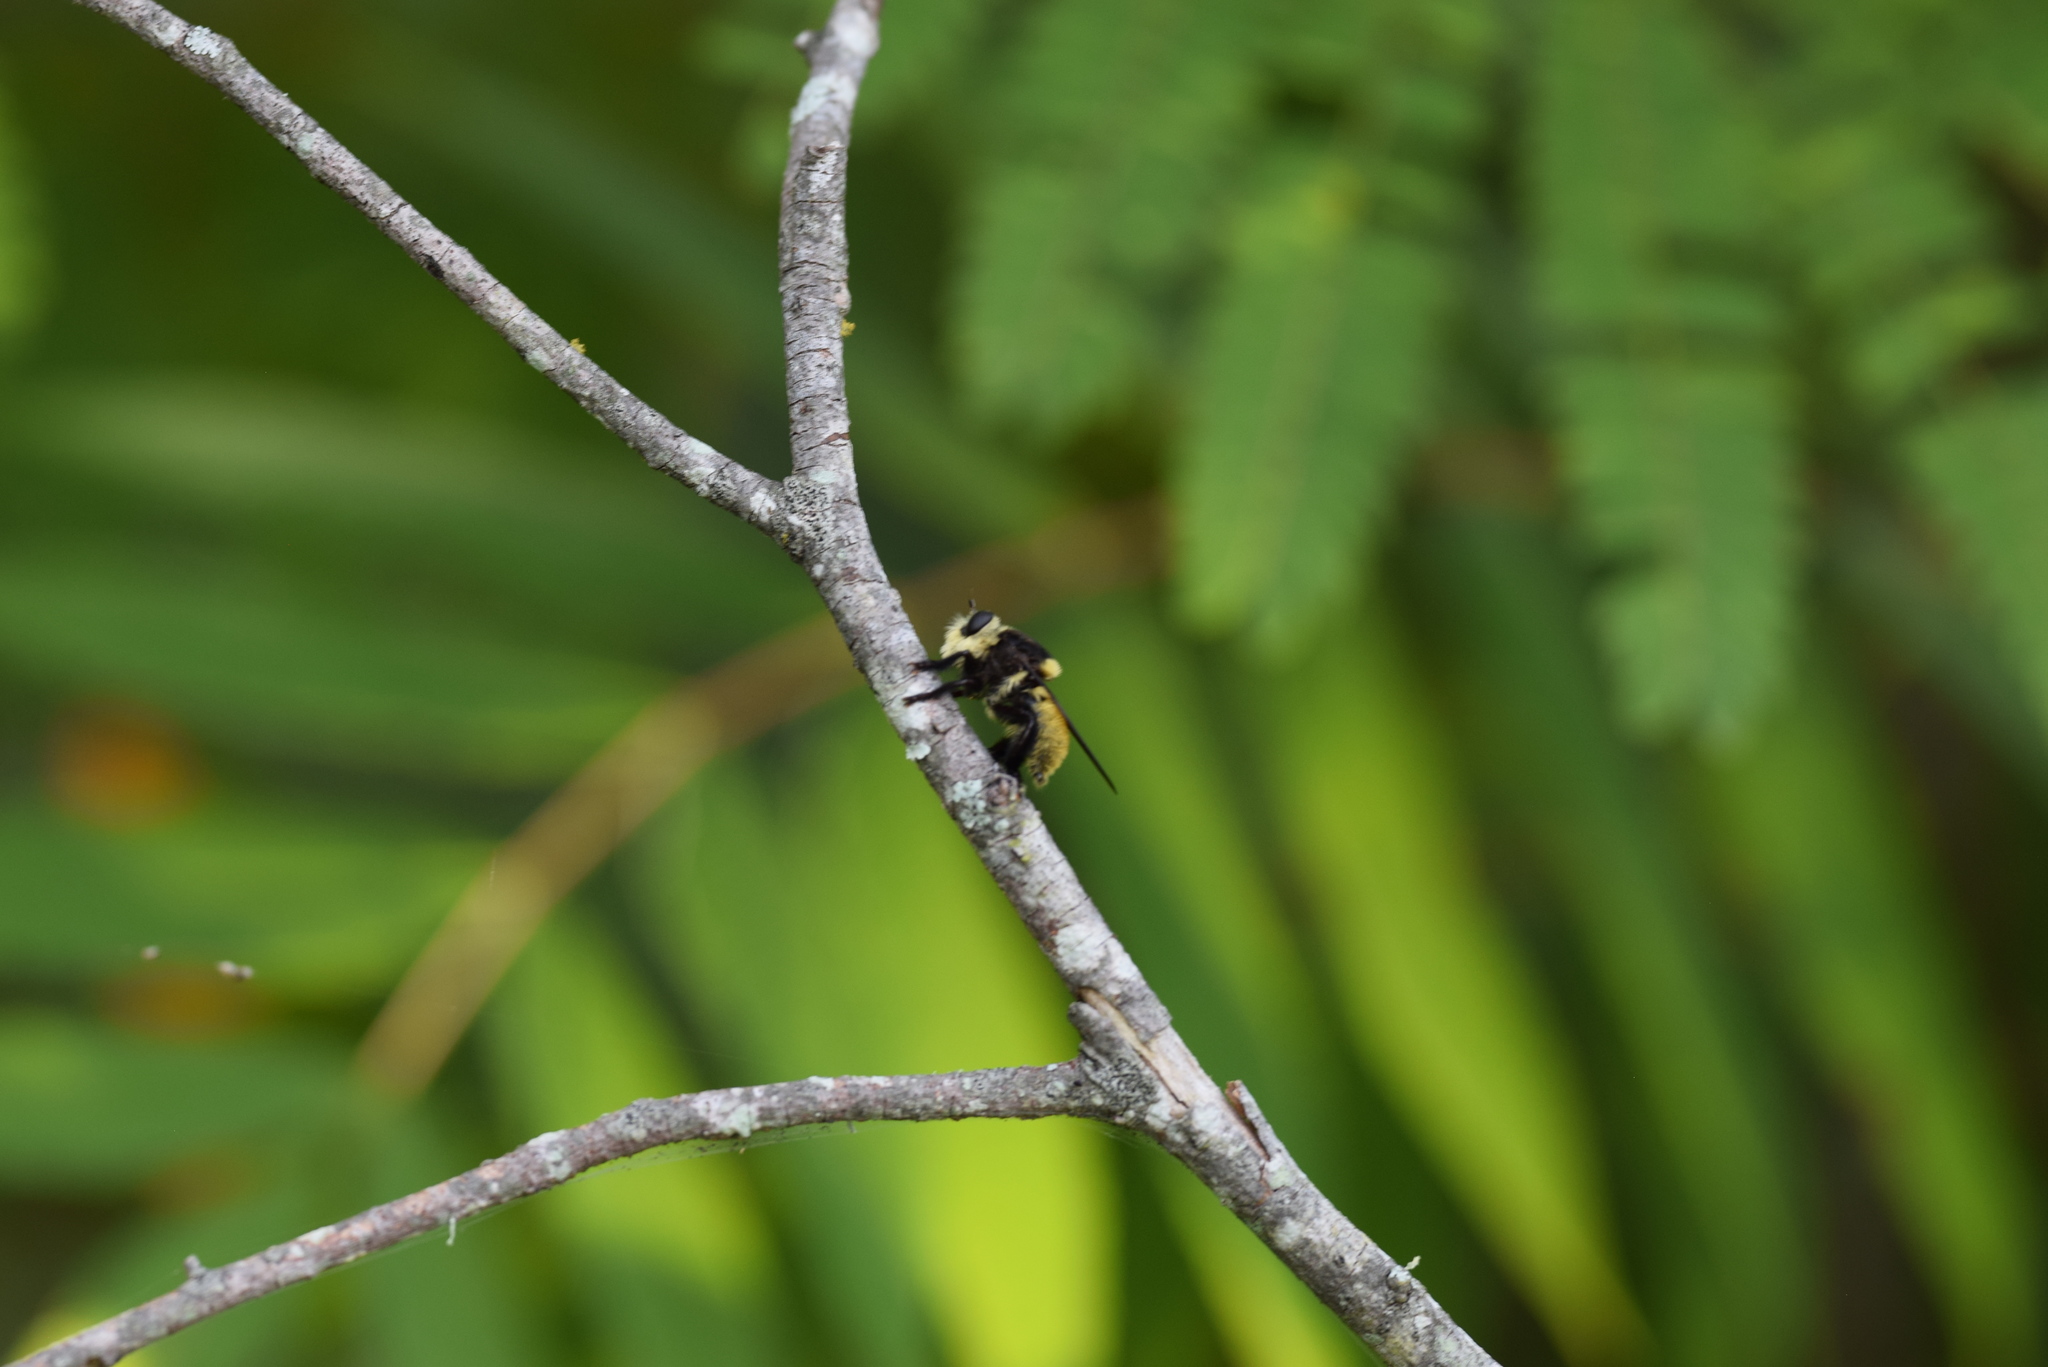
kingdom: Animalia
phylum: Arthropoda
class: Insecta
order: Diptera
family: Asilidae
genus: Mallophora
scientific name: Mallophora fautrix
